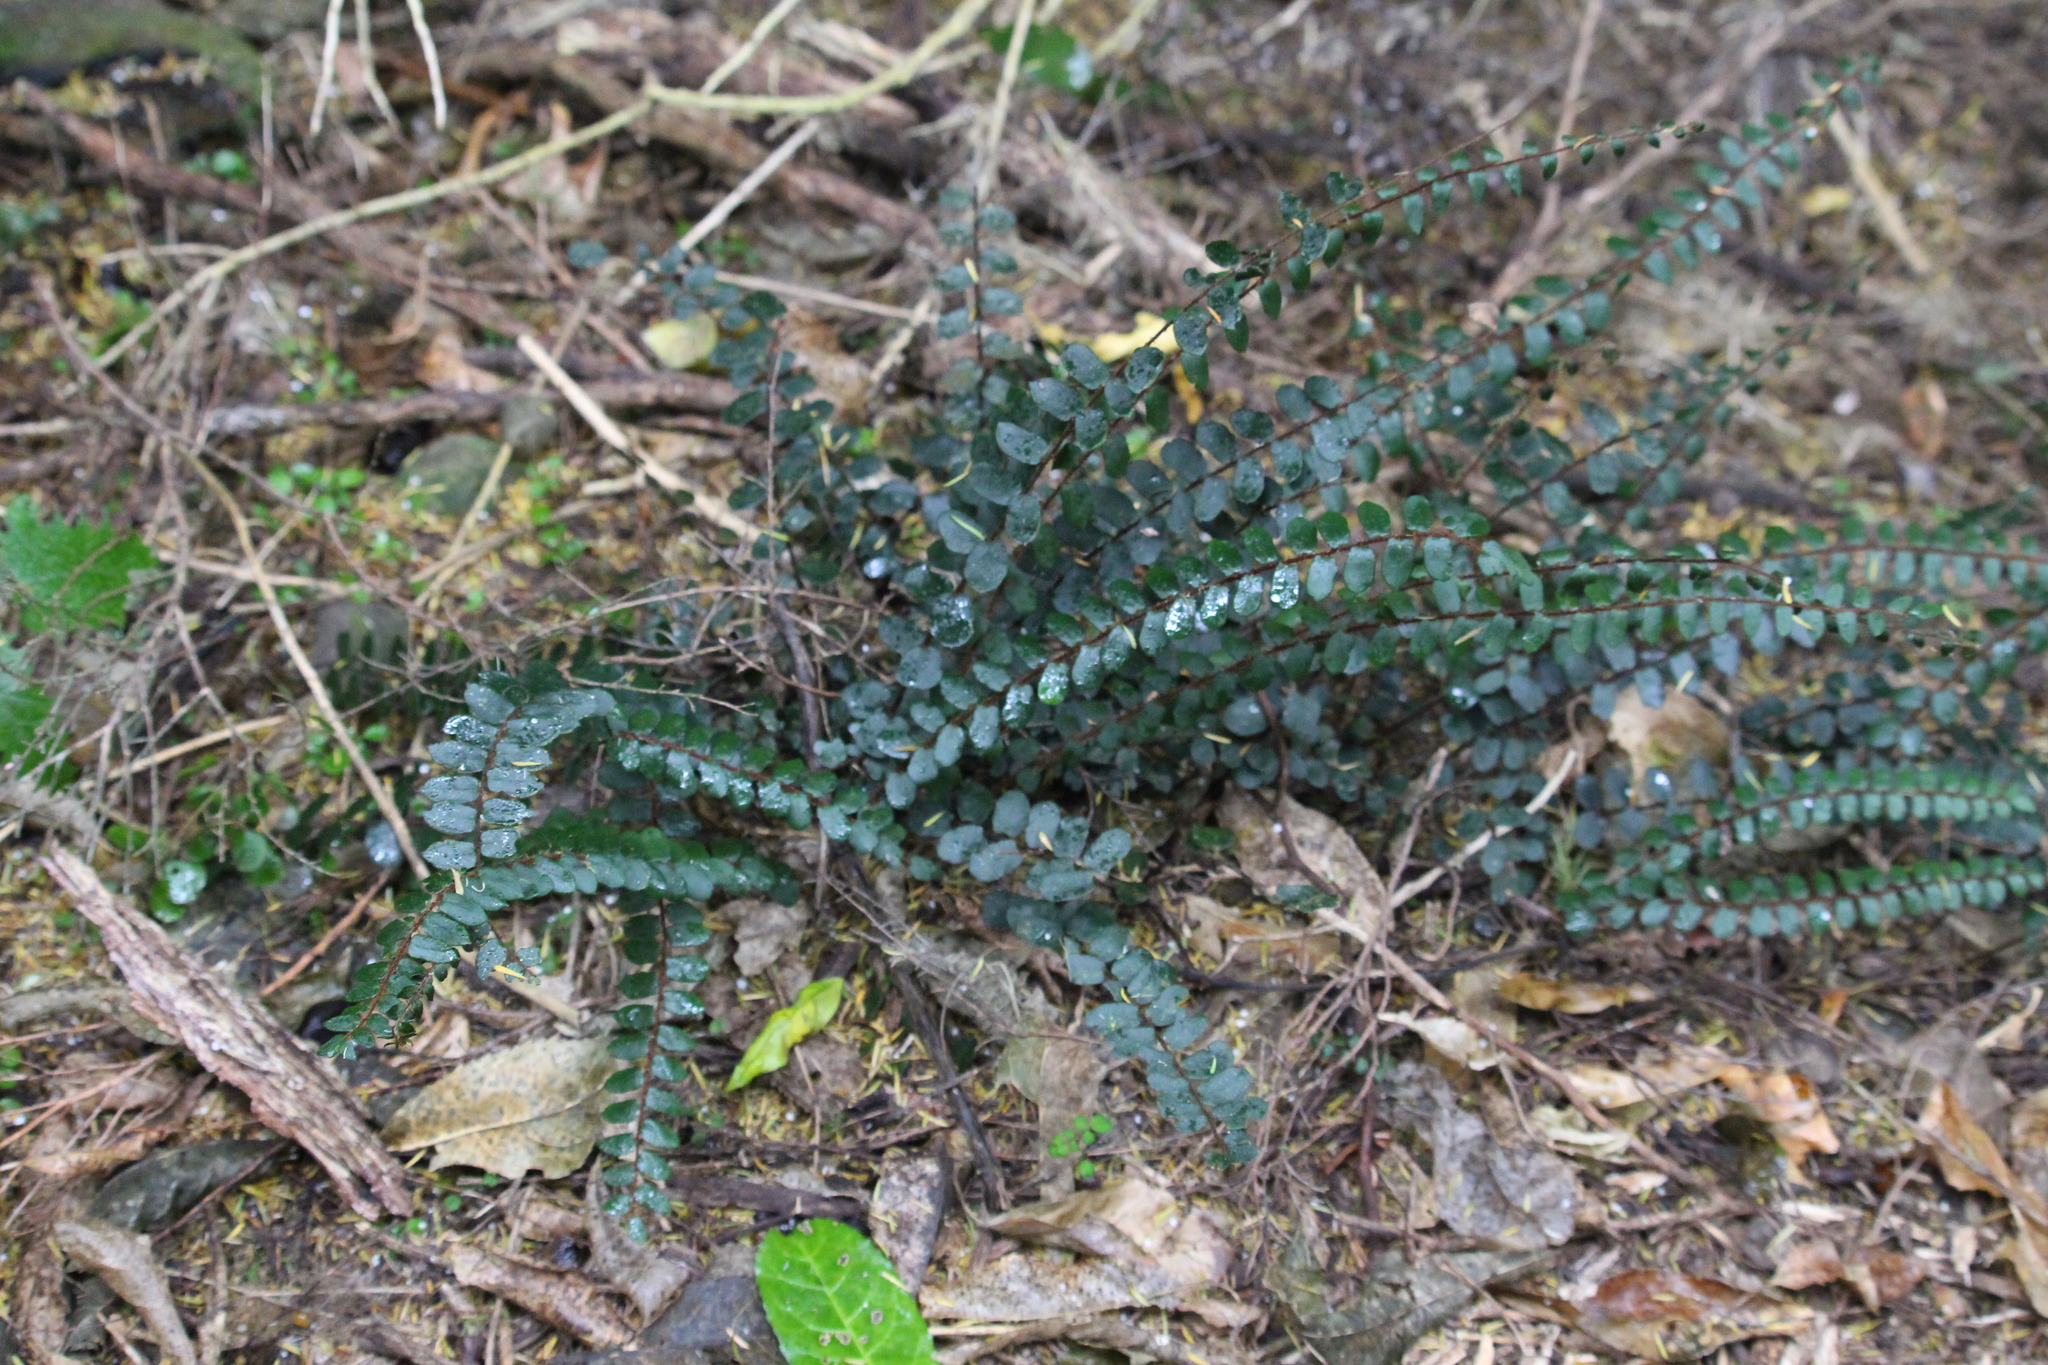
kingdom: Plantae
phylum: Tracheophyta
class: Polypodiopsida
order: Polypodiales
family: Pteridaceae
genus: Pellaea
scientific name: Pellaea rotundifolia
